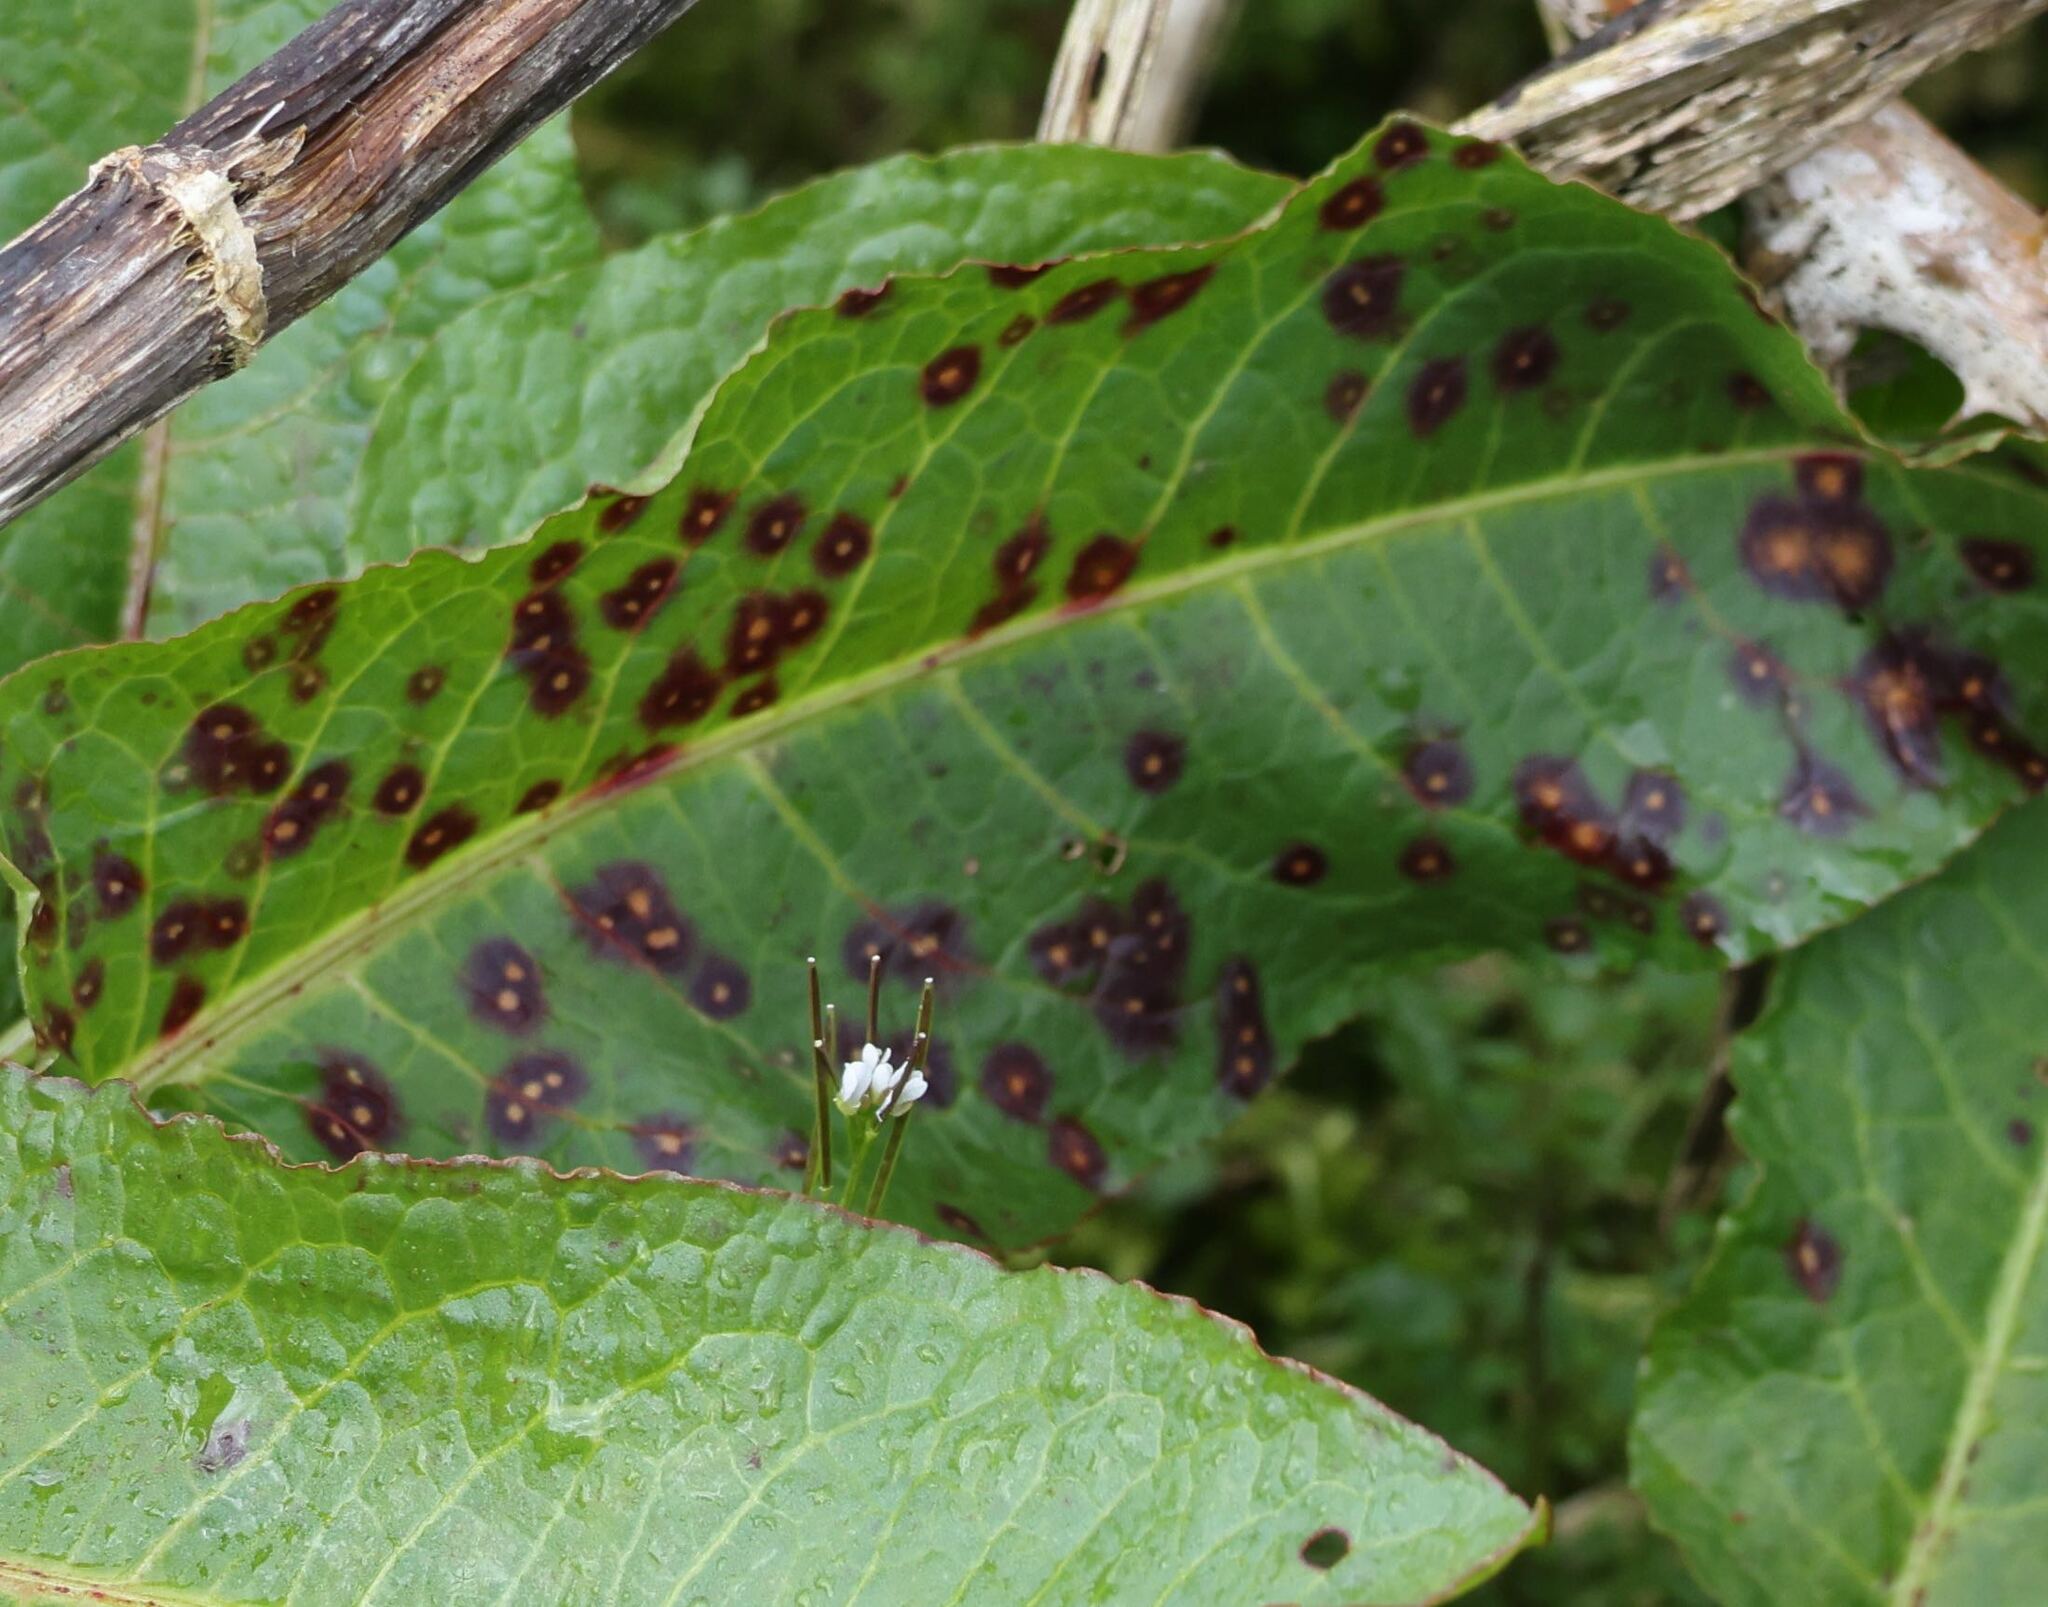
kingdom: Fungi
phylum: Ascomycota
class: Dothideomycetes
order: Mycosphaerellales
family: Mycosphaerellaceae
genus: Ramularia
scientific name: Ramularia rubella
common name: Red dock spot
